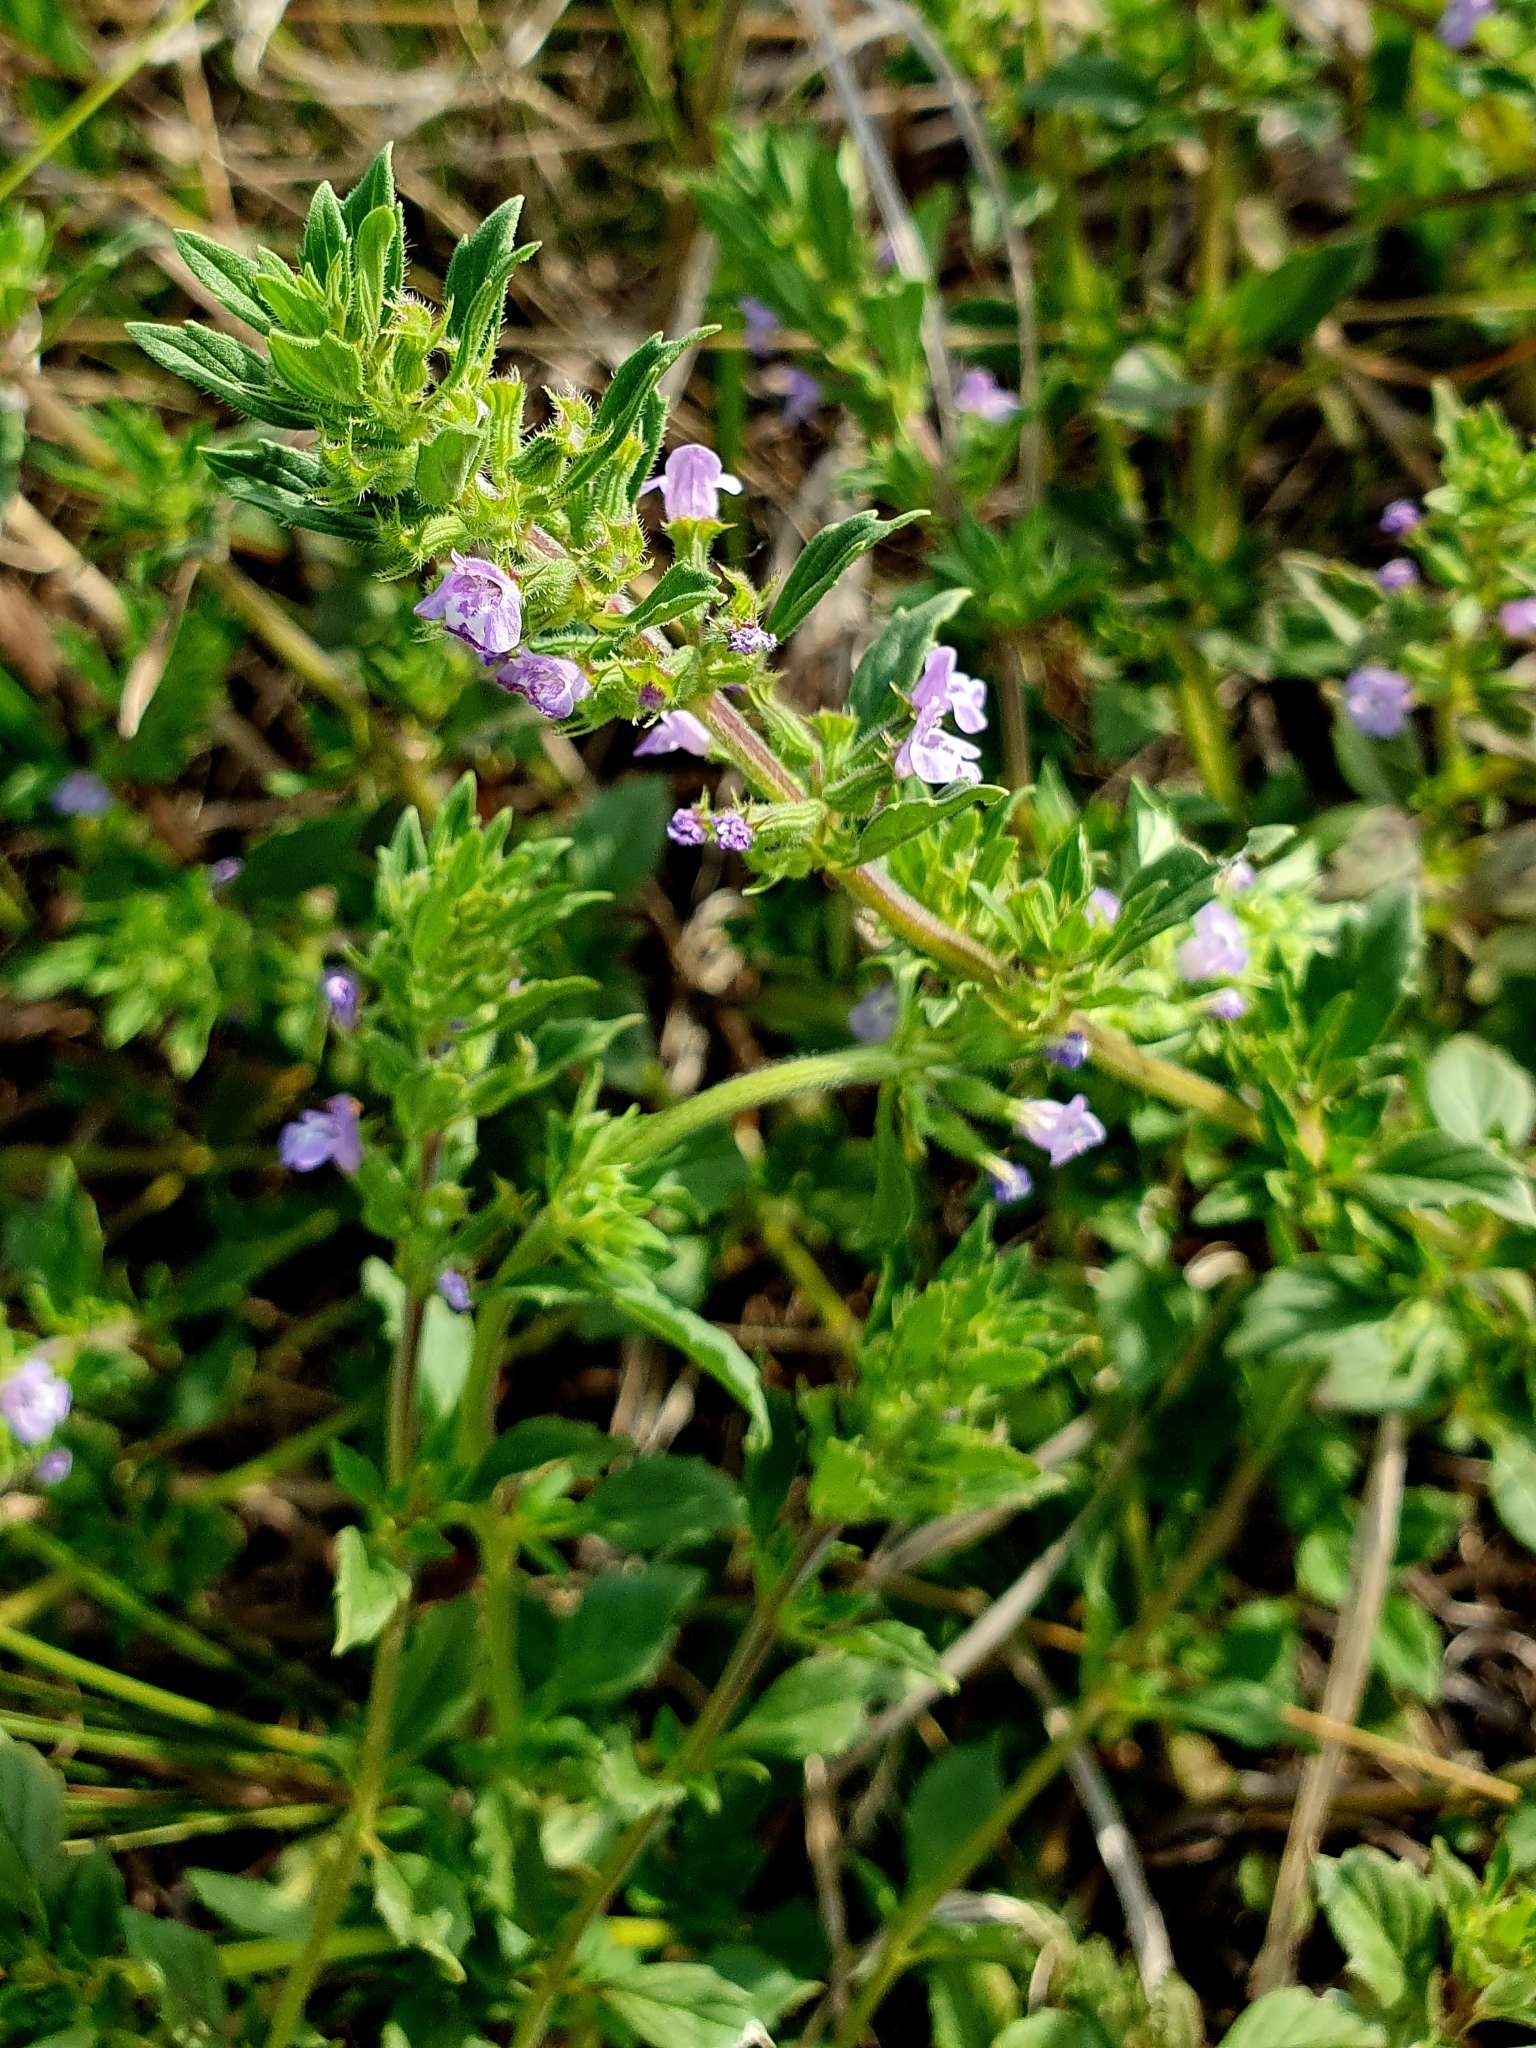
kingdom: Plantae
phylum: Tracheophyta
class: Magnoliopsida
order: Lamiales
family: Lamiaceae
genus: Clinopodium
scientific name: Clinopodium acinos
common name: Basil thyme
